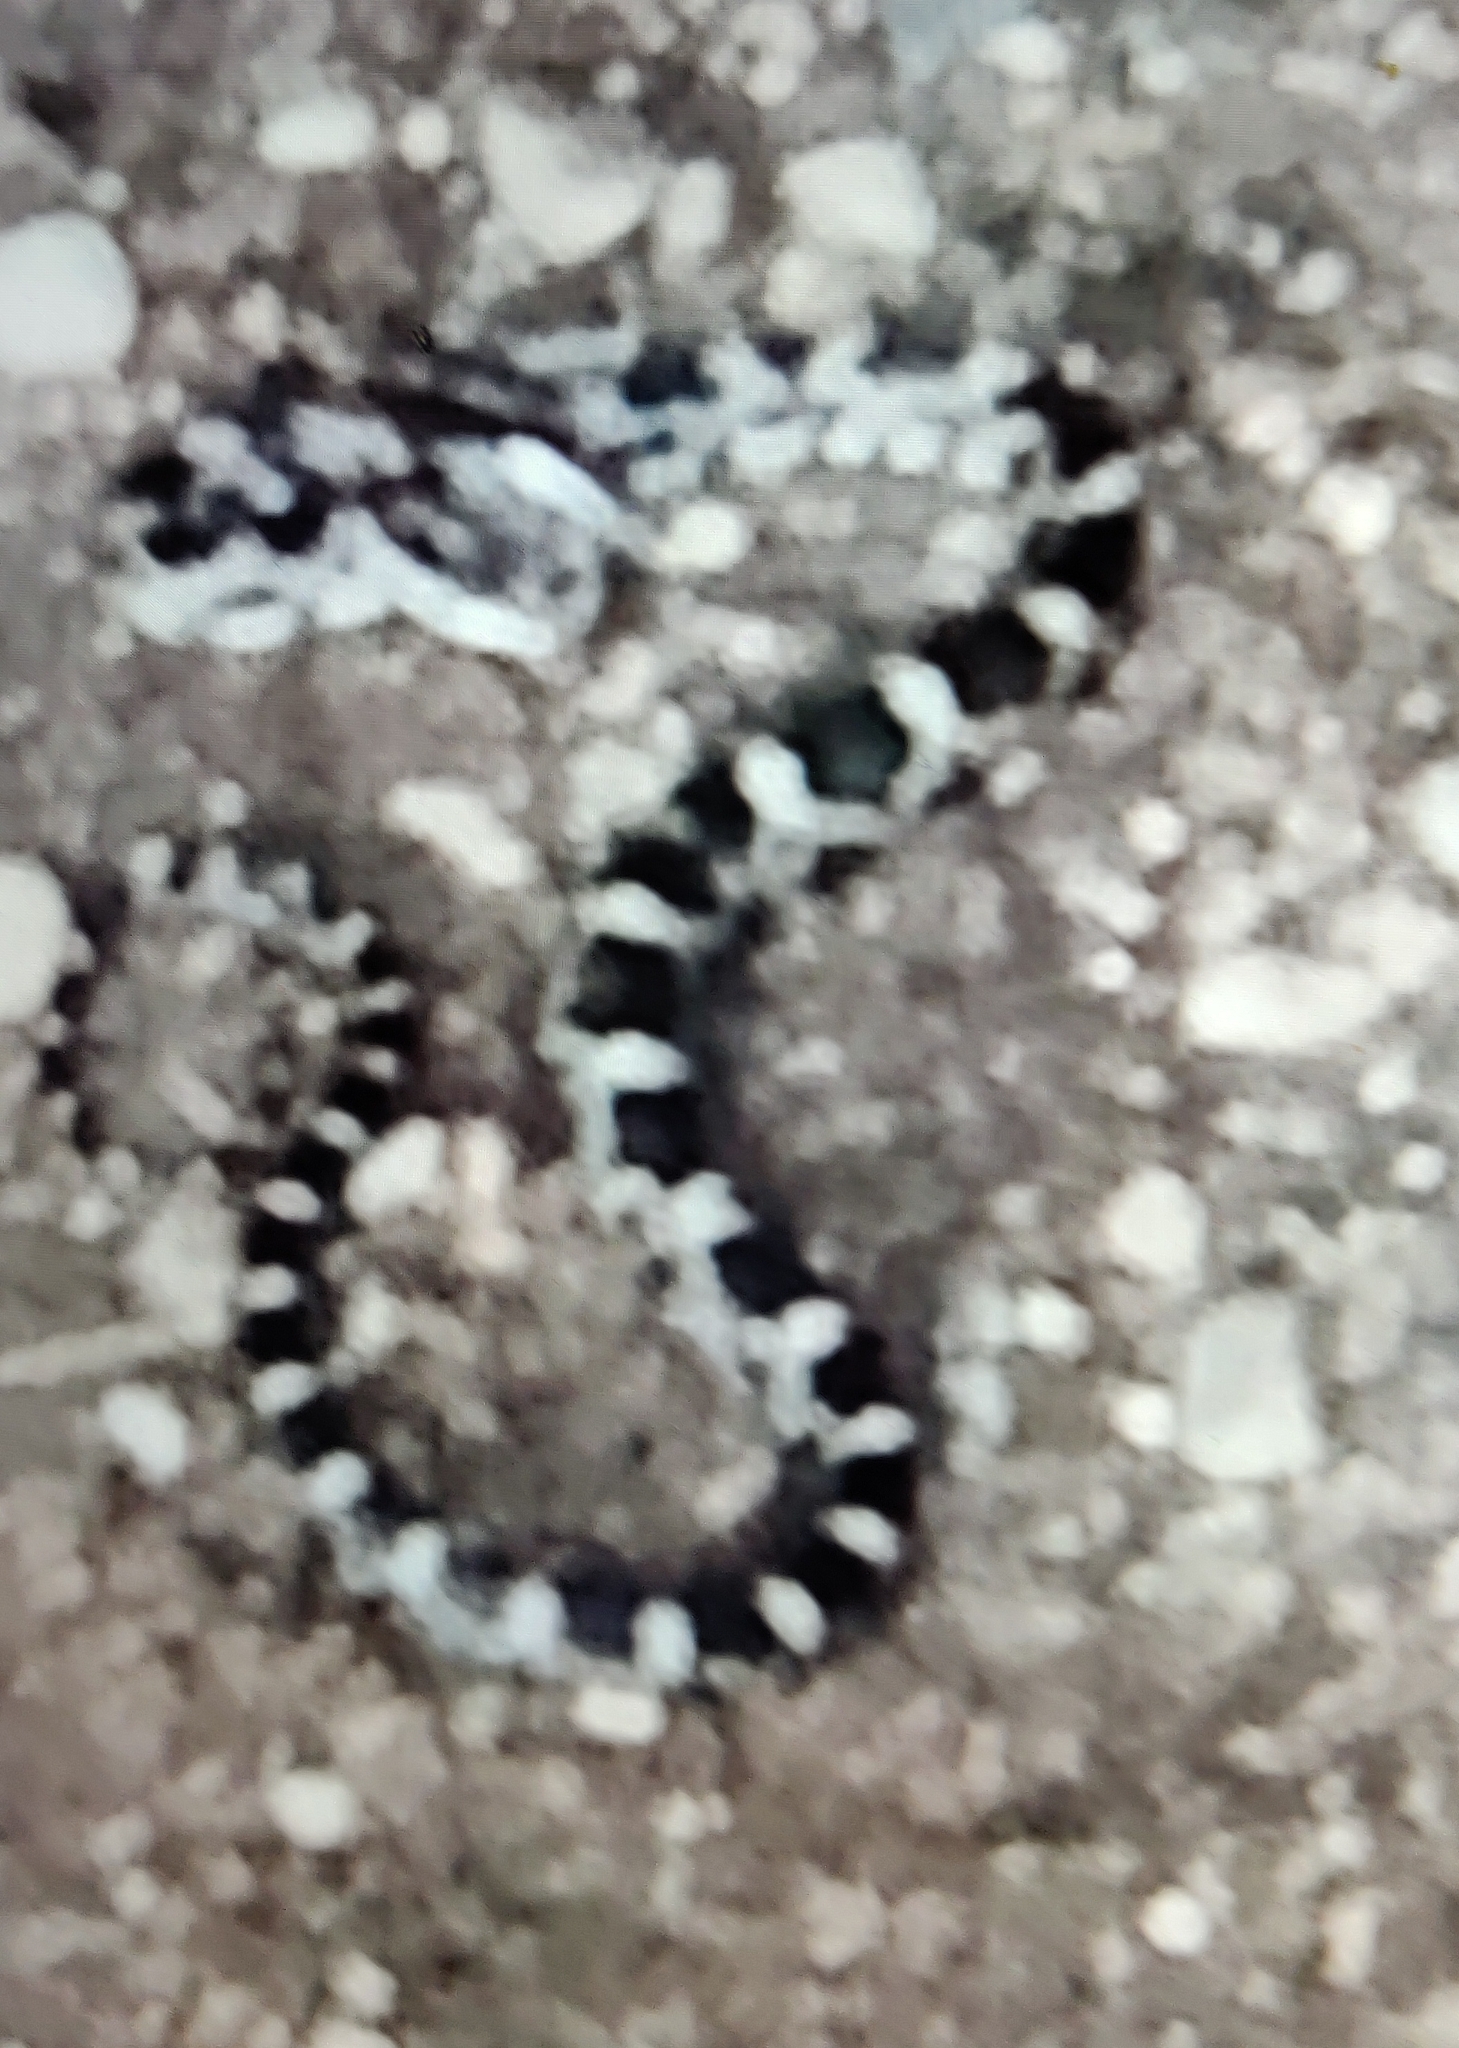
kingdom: Animalia
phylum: Chordata
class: Squamata
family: Colubridae
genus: Pantherophis
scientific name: Pantherophis spiloides
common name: Gray rat snake
